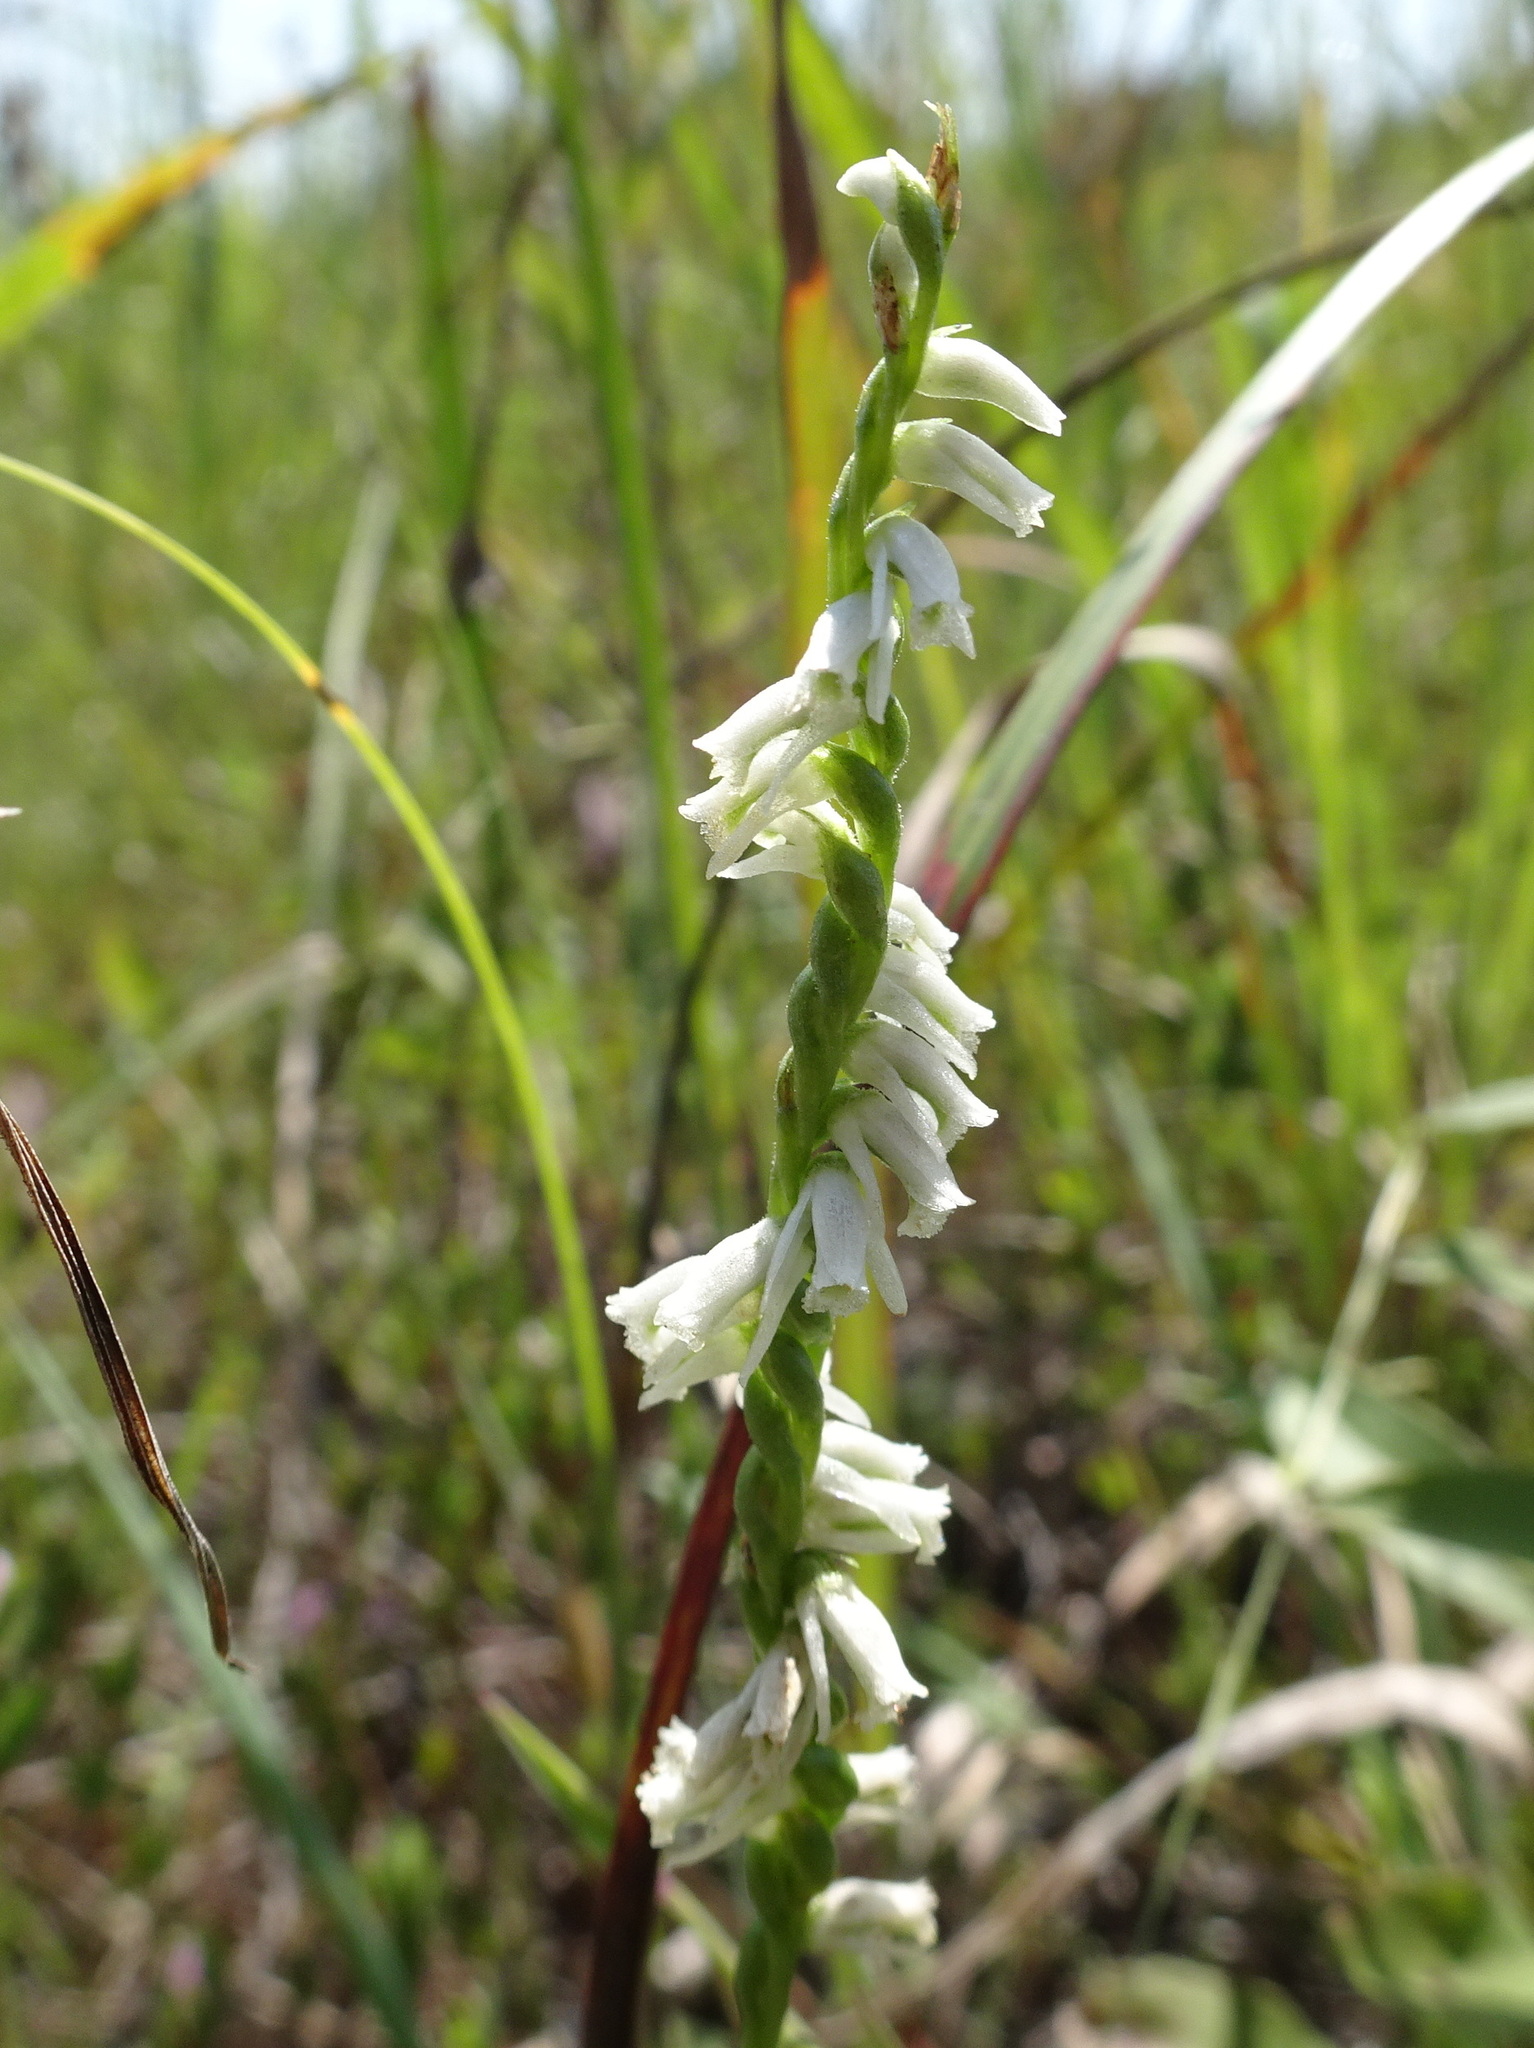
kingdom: Plantae
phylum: Tracheophyta
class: Liliopsida
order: Asparagales
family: Orchidaceae
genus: Spiranthes
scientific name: Spiranthes lacera
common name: Northern slender ladies'-tresses
